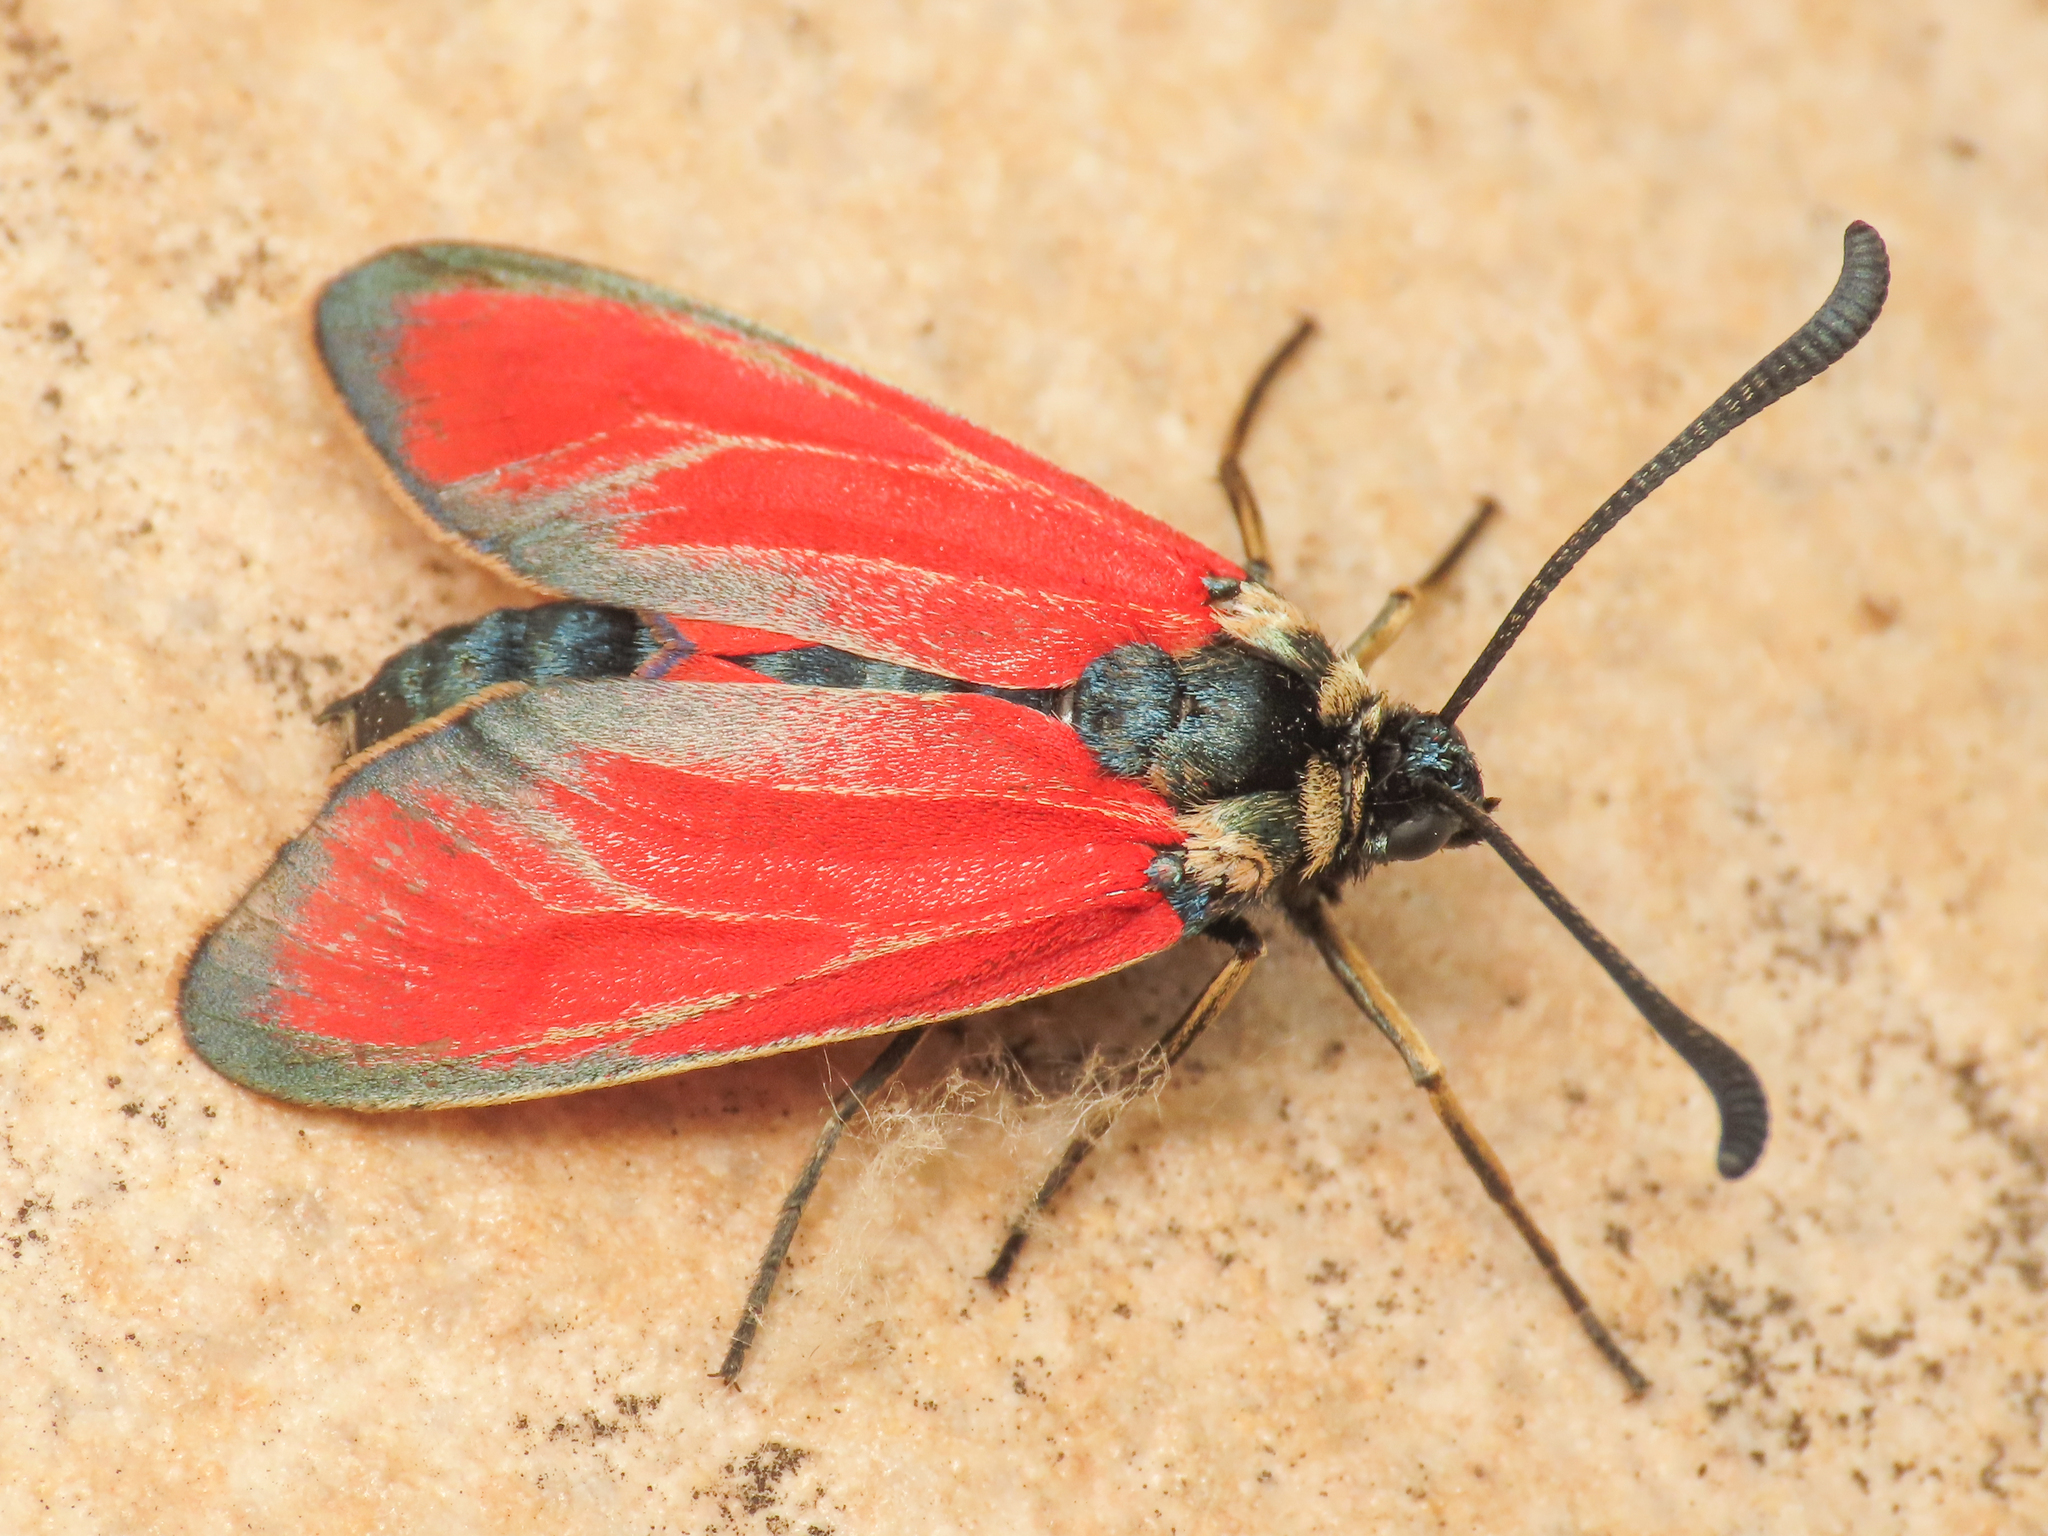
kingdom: Animalia
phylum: Arthropoda
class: Insecta
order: Lepidoptera
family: Zygaenidae
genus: Zygaena
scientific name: Zygaena erythrus
